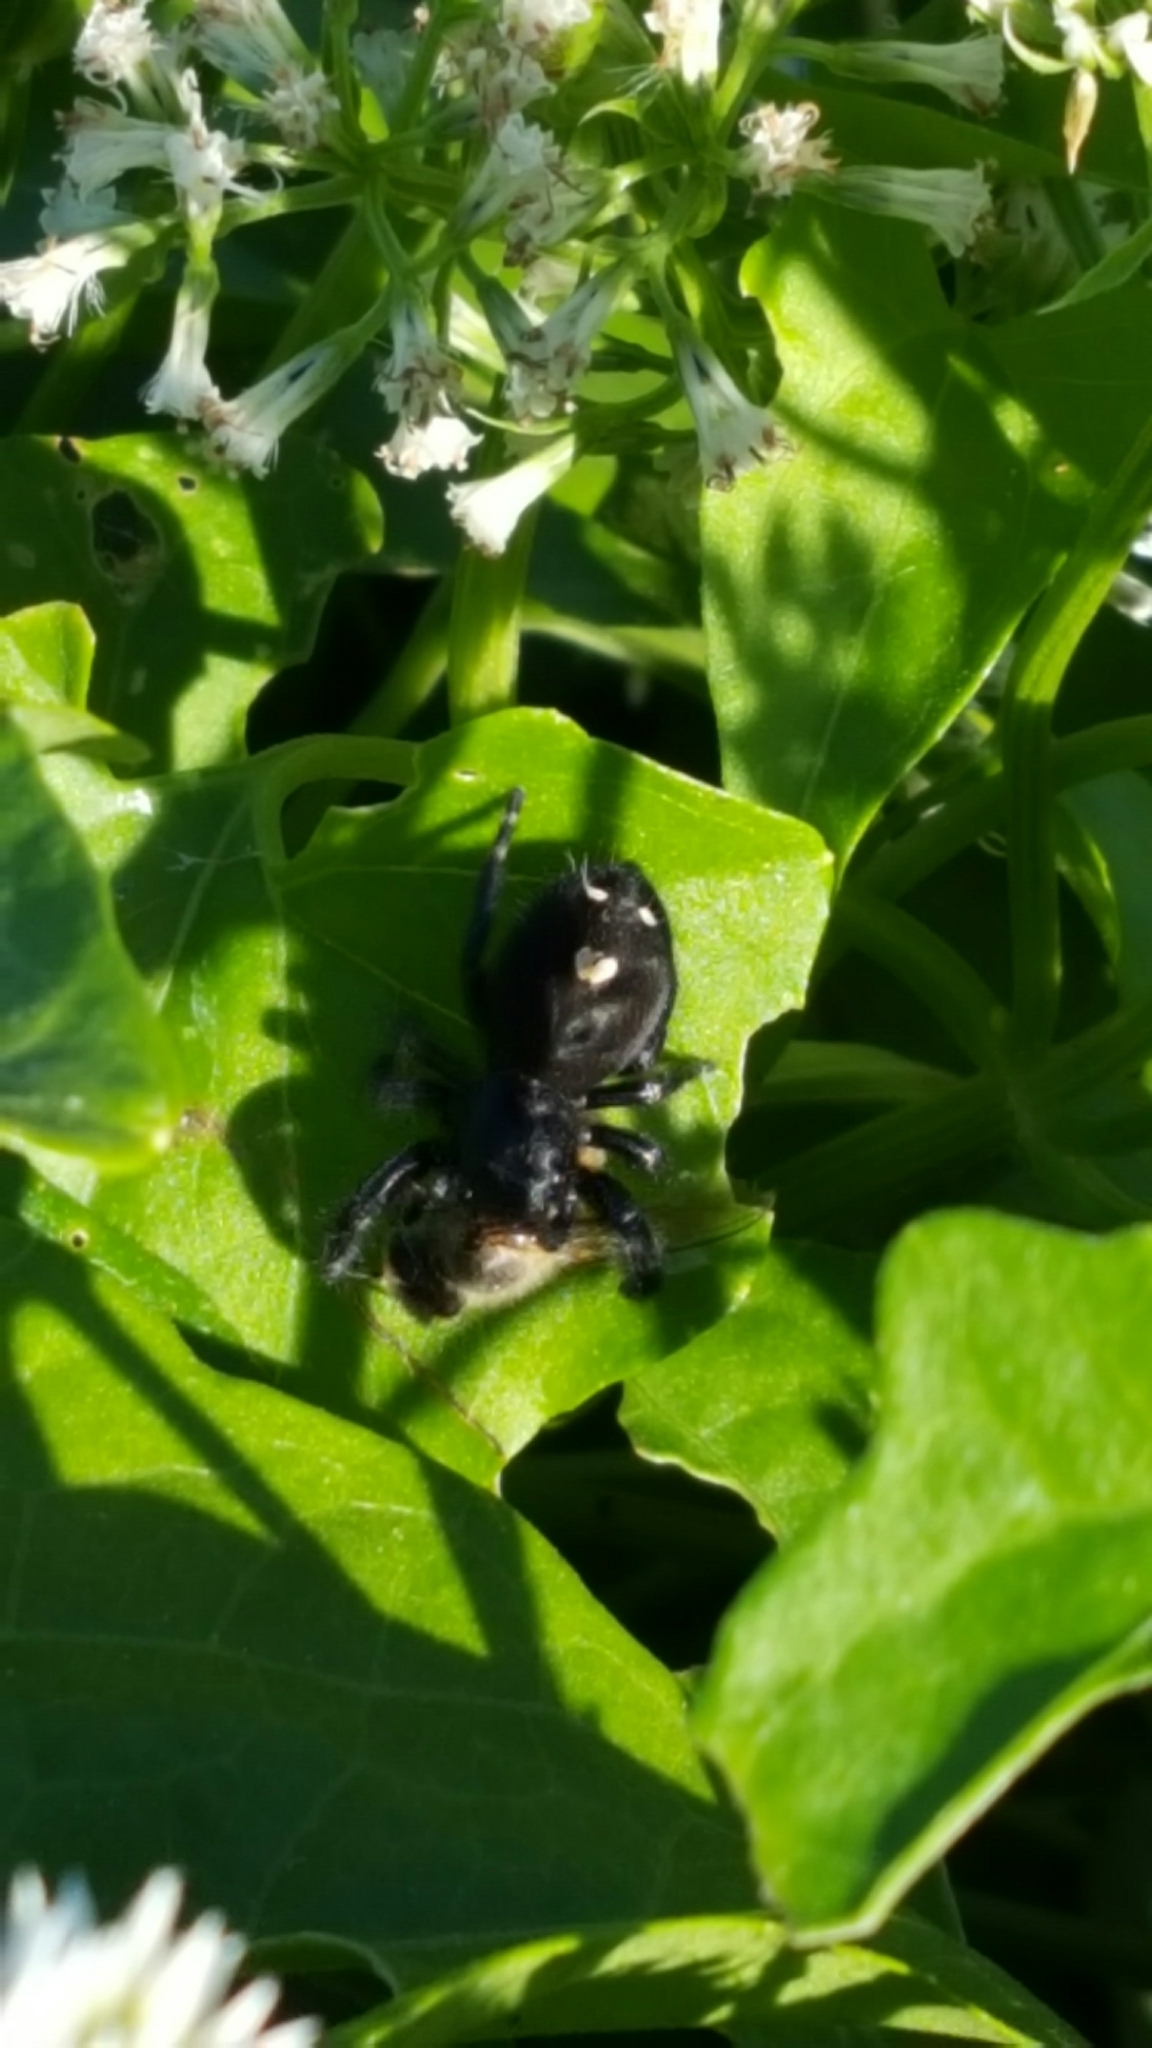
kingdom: Animalia
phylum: Arthropoda
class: Arachnida
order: Araneae
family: Salticidae
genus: Phidippus
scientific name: Phidippus audax
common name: Bold jumper
